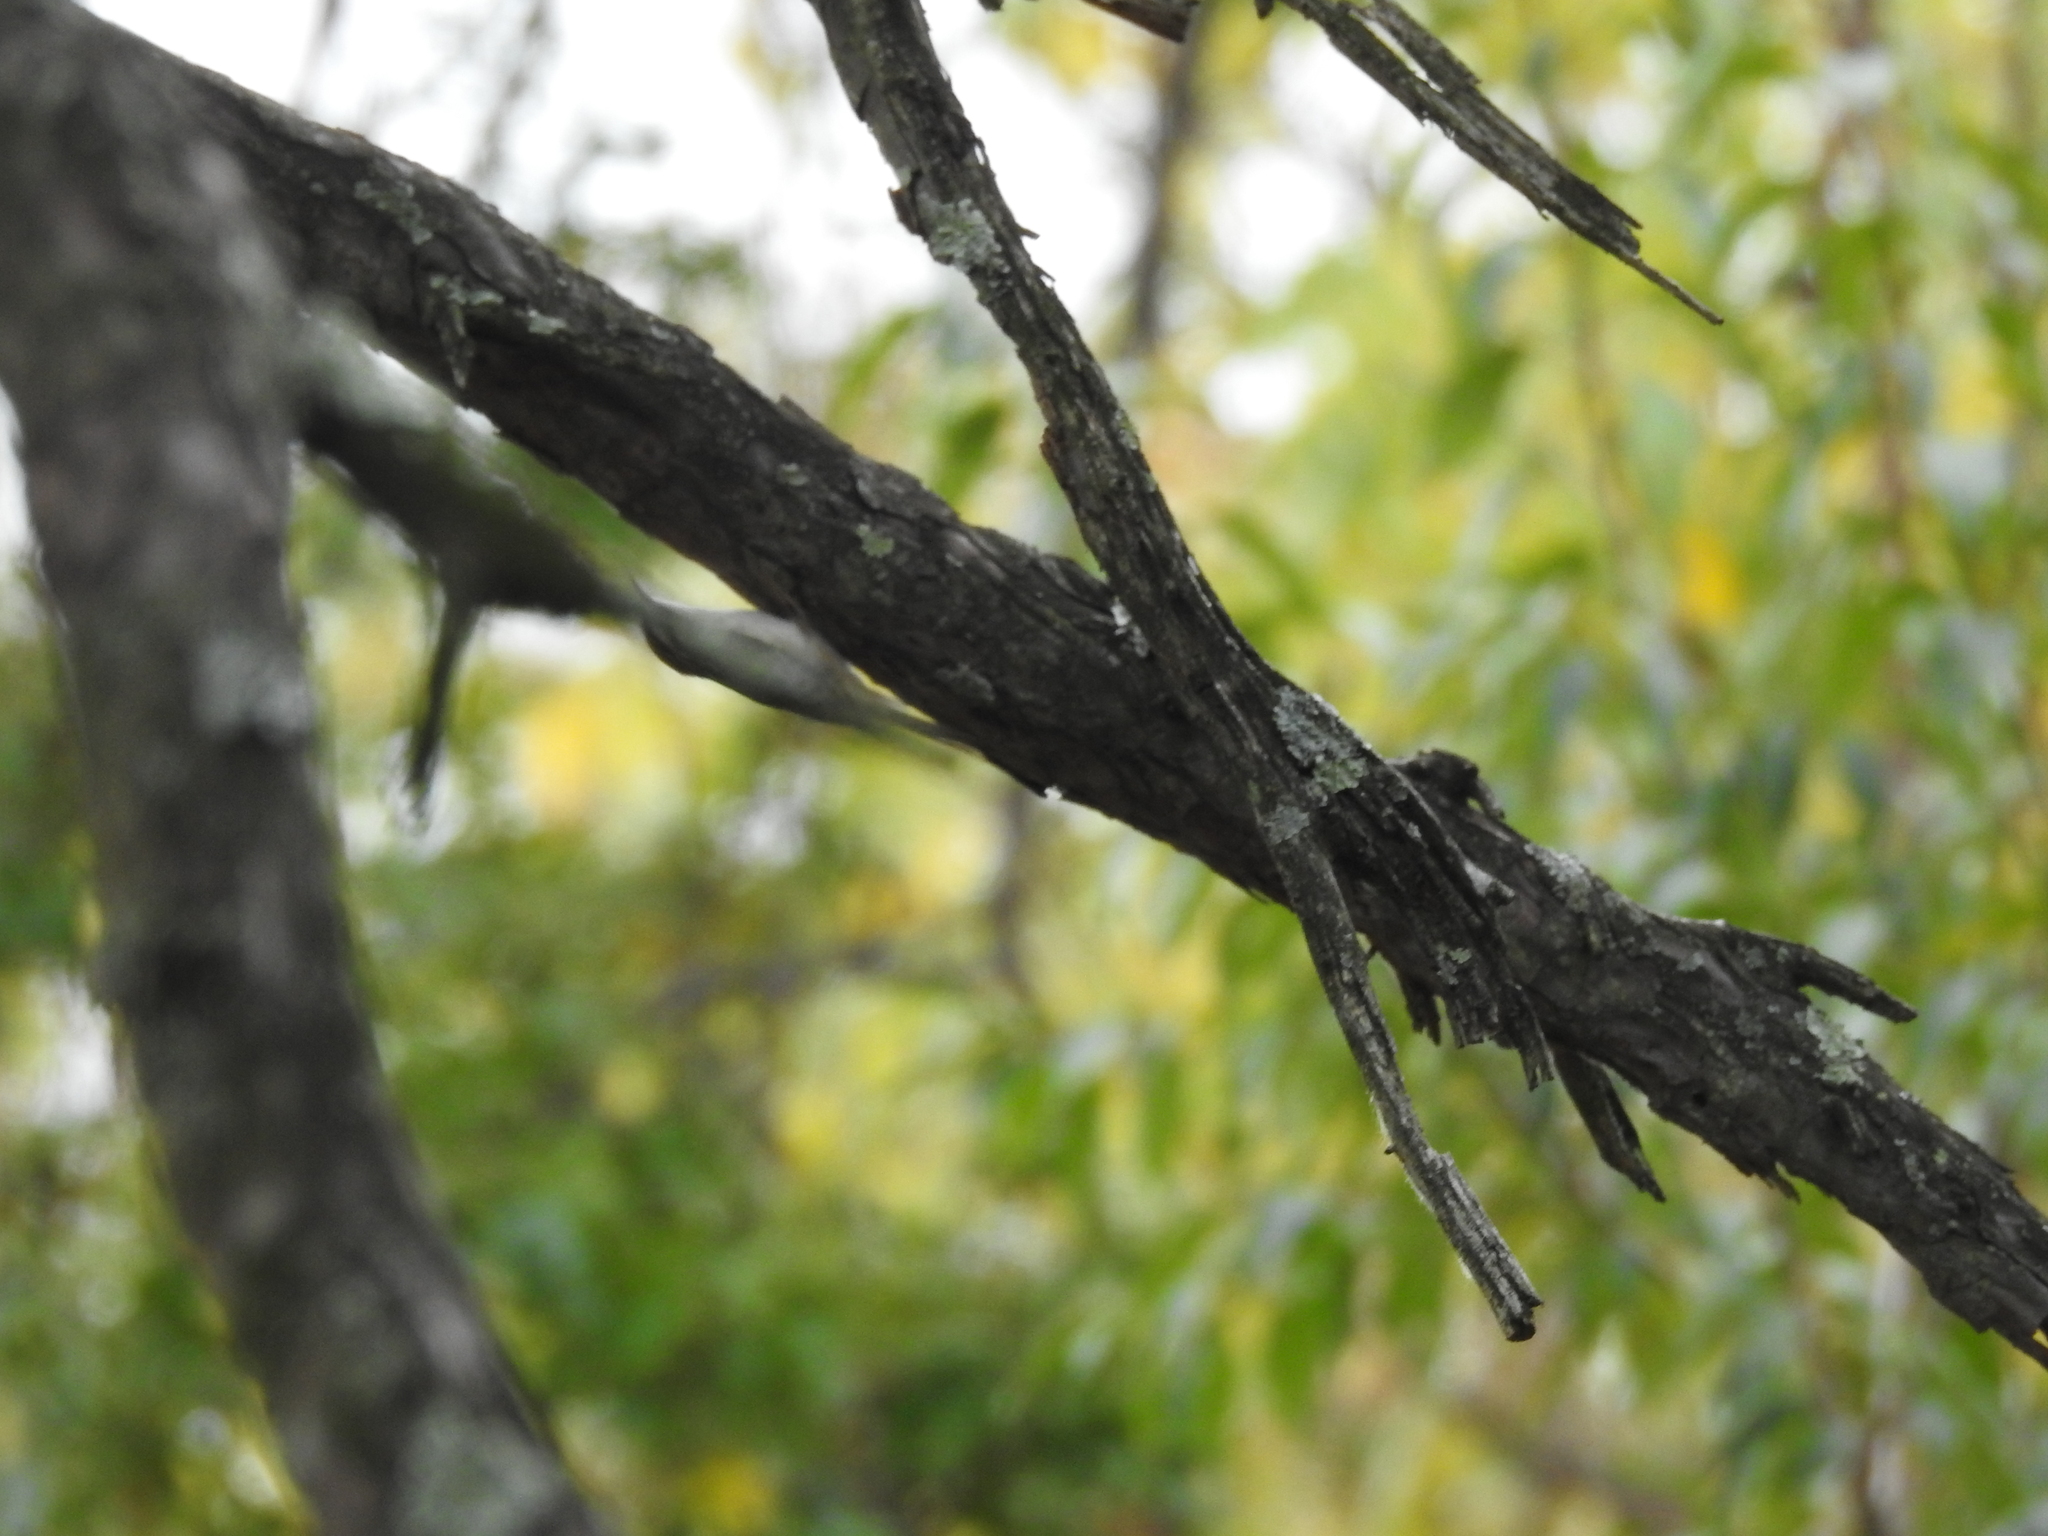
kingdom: Animalia
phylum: Chordata
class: Aves
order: Passeriformes
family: Certhiidae
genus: Certhia
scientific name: Certhia americana
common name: Brown creeper
